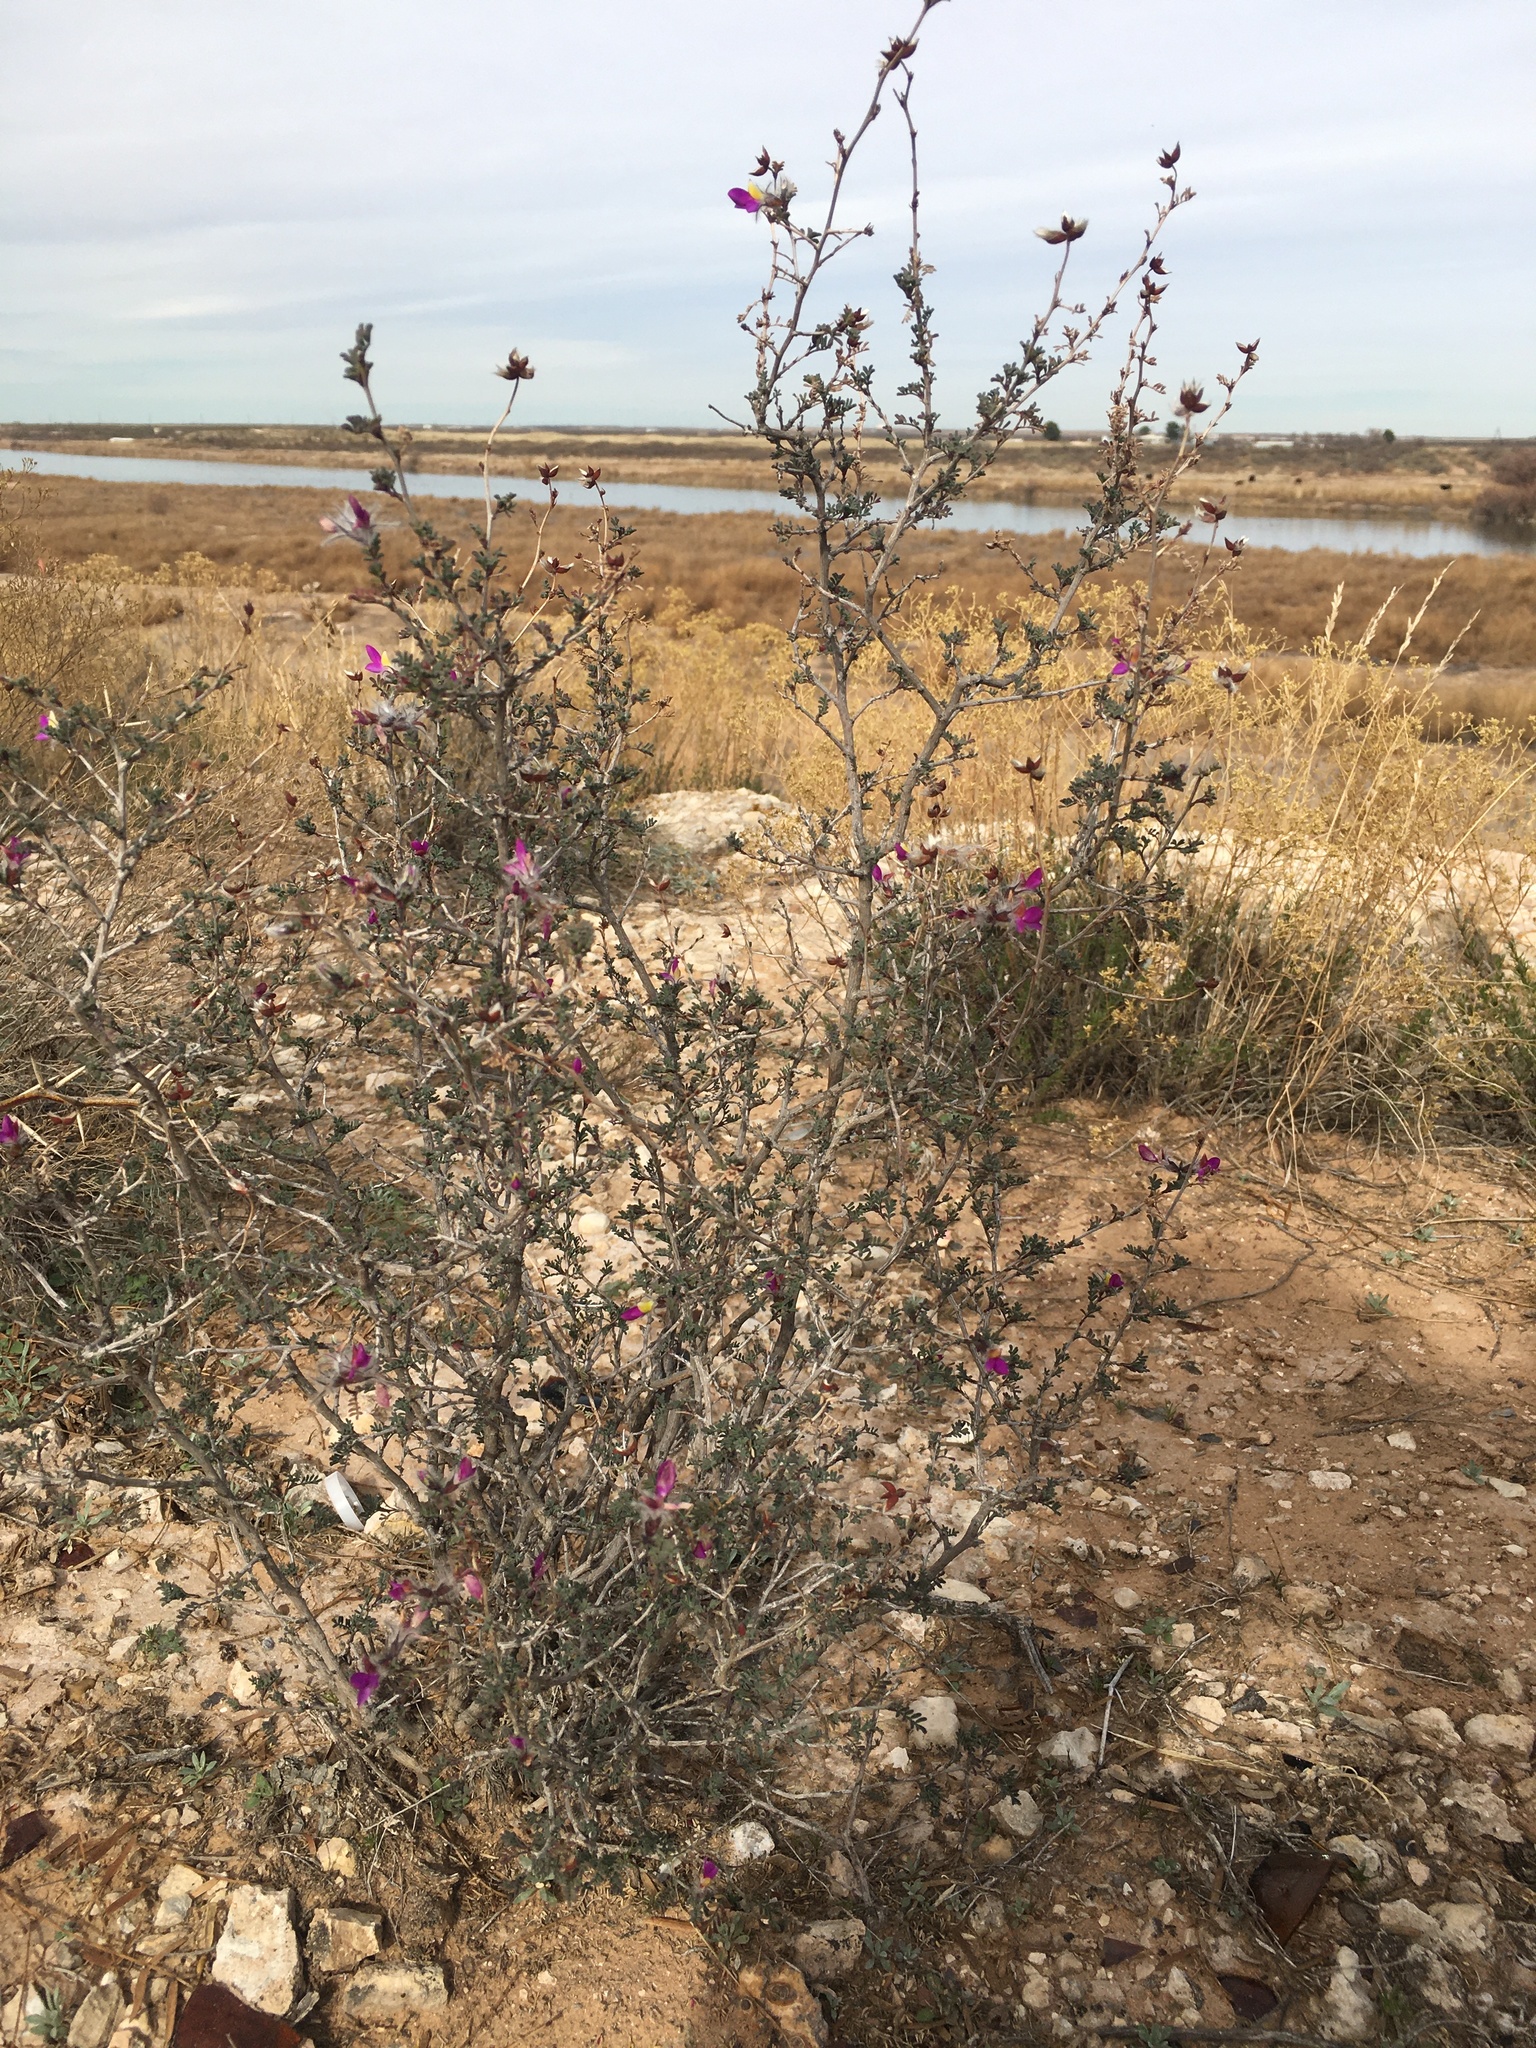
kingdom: Plantae
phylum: Tracheophyta
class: Magnoliopsida
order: Fabales
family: Fabaceae
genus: Dalea
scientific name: Dalea formosa
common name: Feather-plume dalea
